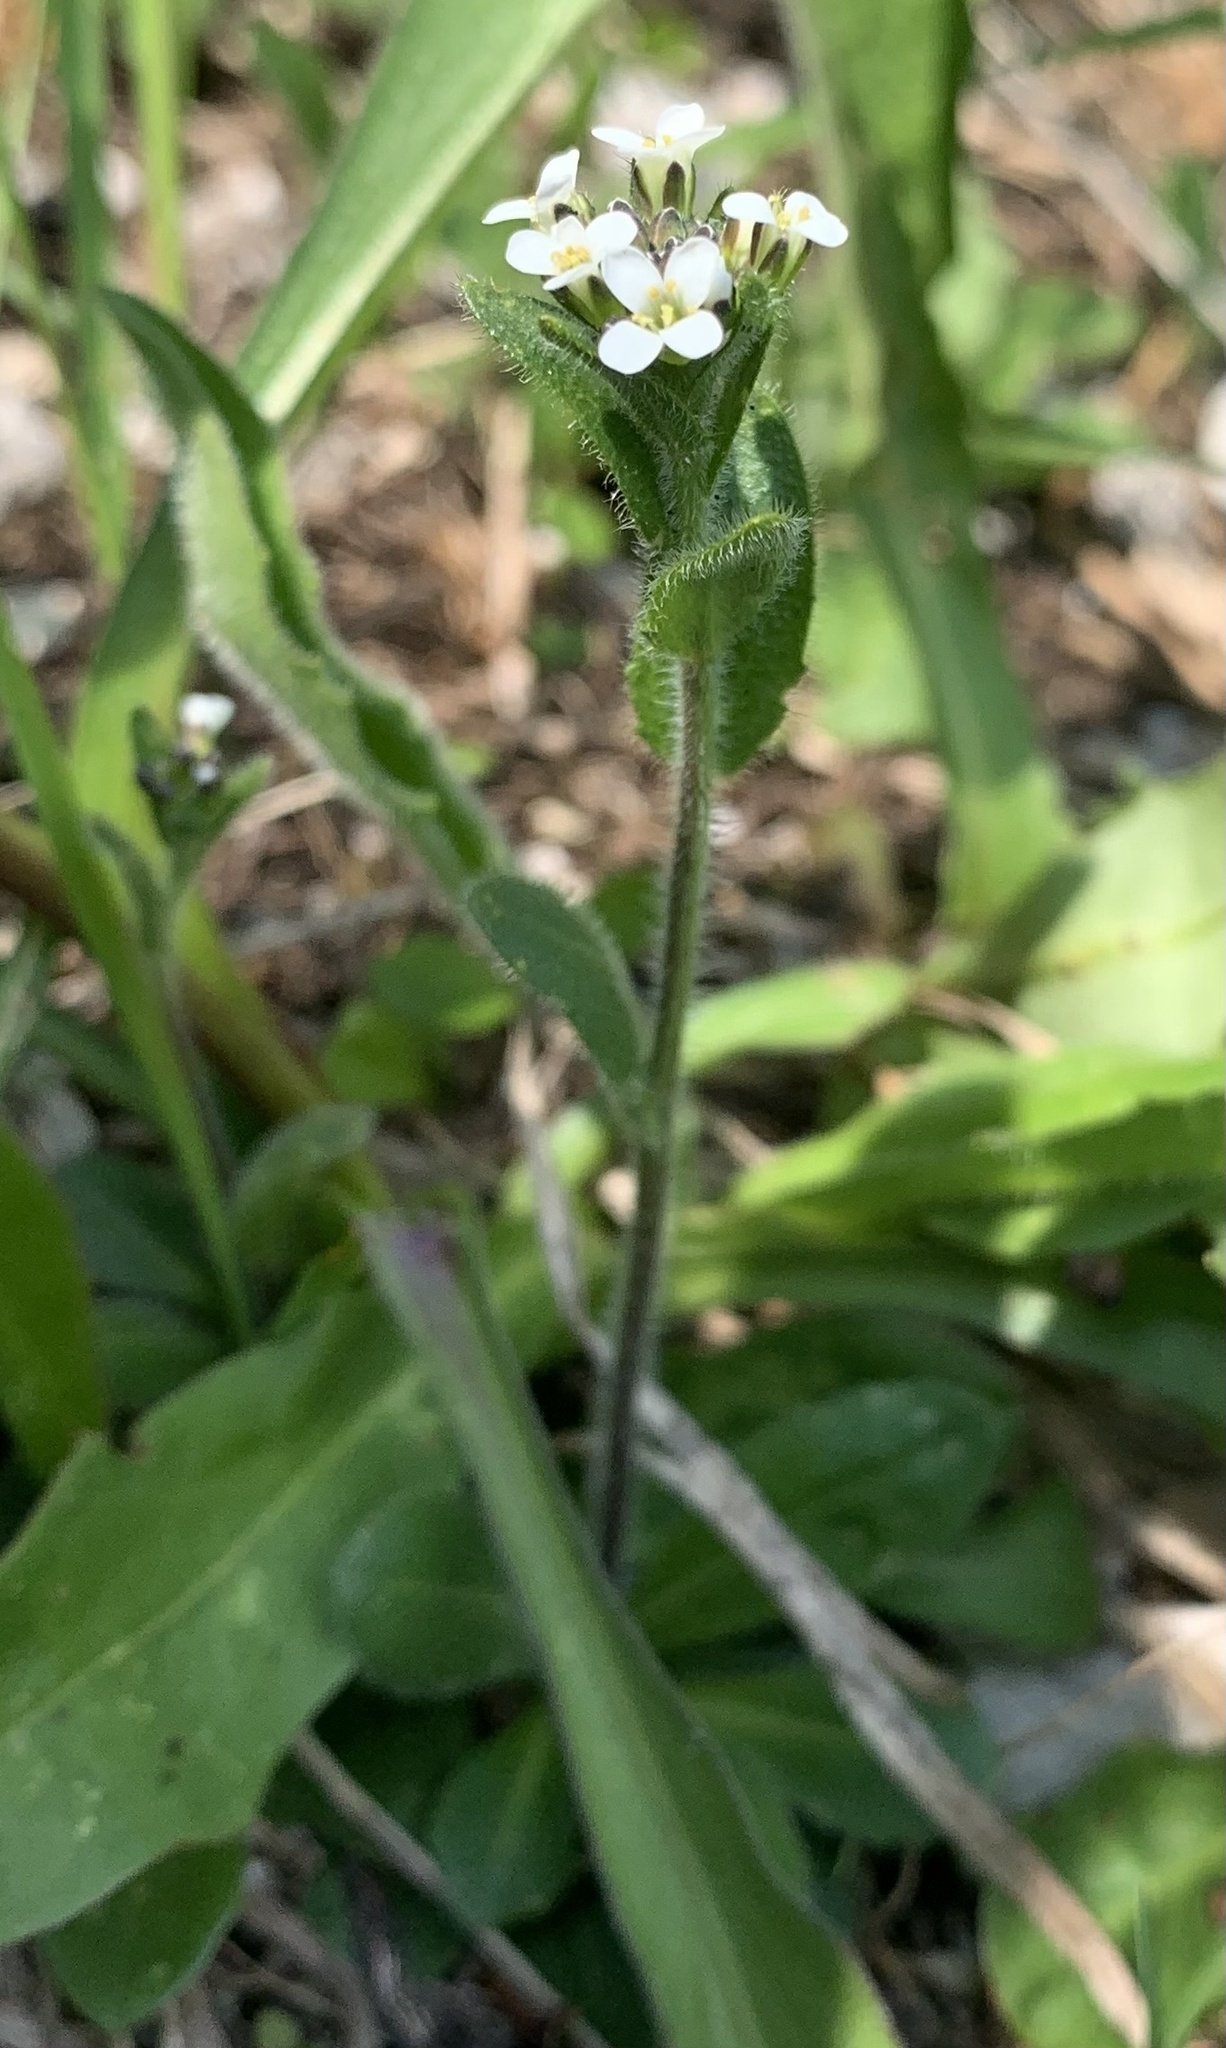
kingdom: Plantae
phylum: Tracheophyta
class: Magnoliopsida
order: Brassicales
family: Brassicaceae
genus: Arabis
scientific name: Arabis hirsuta
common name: Hairy rock-cress
